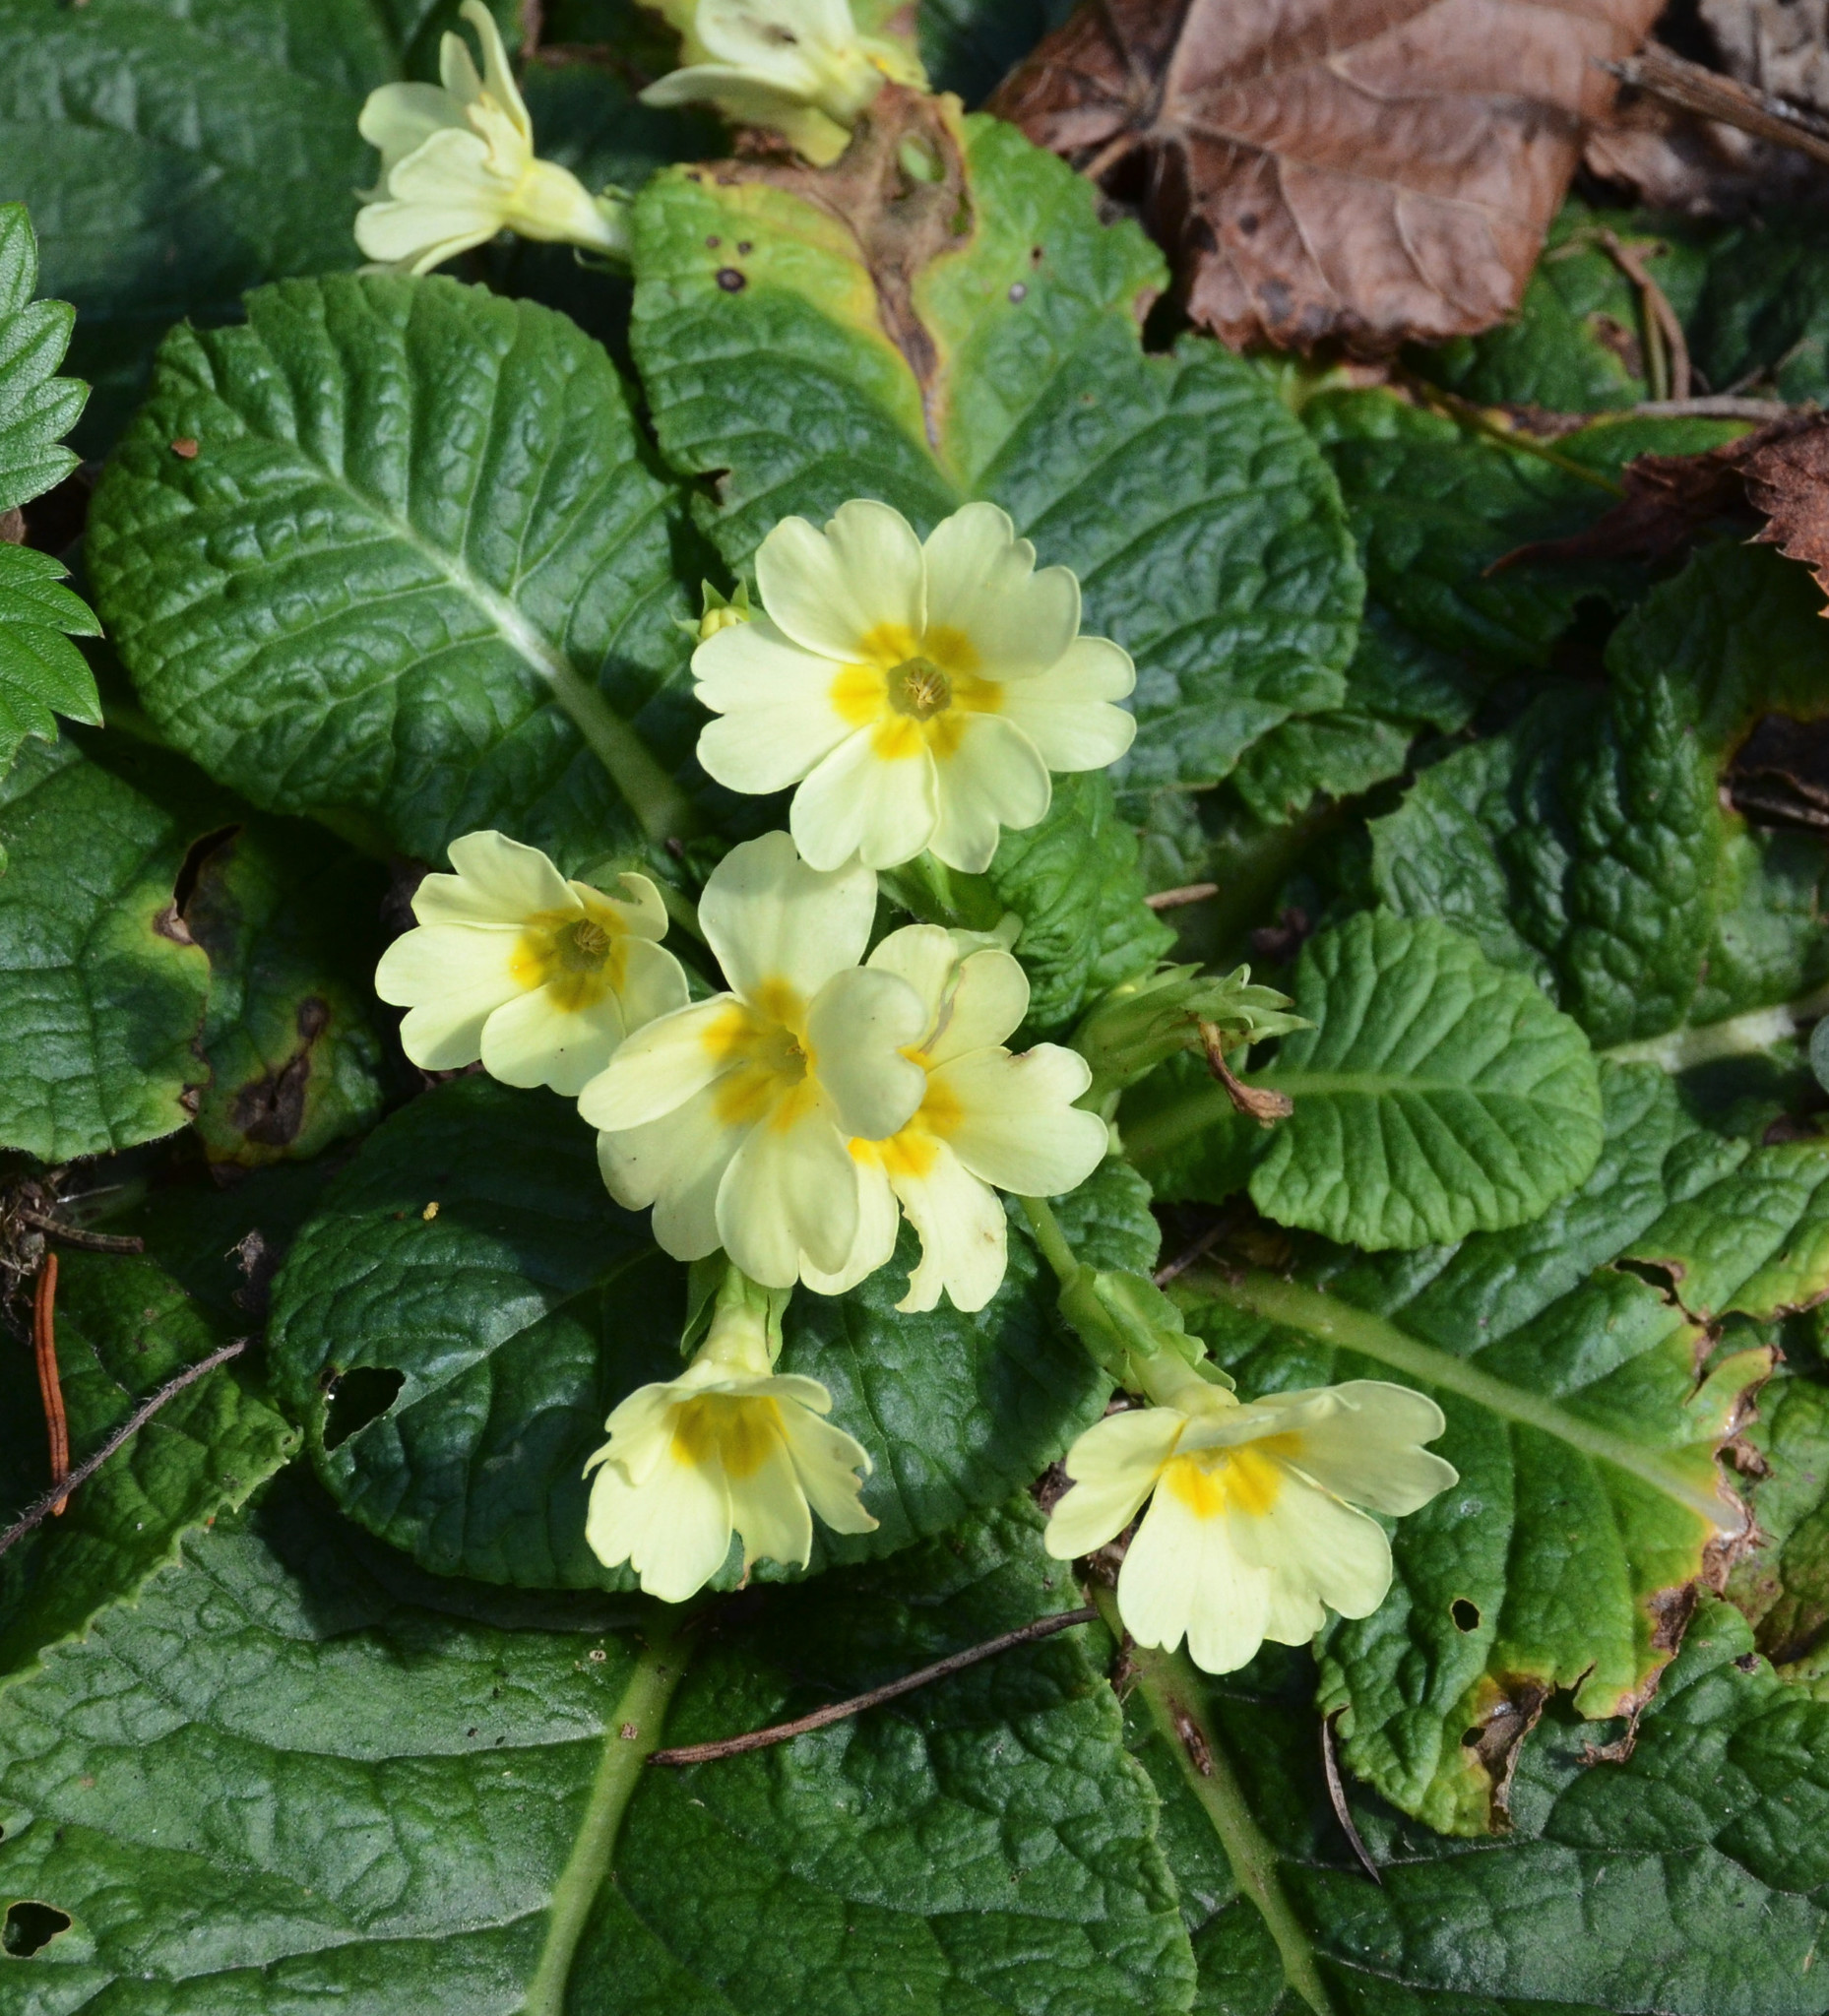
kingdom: Plantae
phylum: Tracheophyta
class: Magnoliopsida
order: Ericales
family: Primulaceae
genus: Primula
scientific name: Primula vulgaris
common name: Primrose
